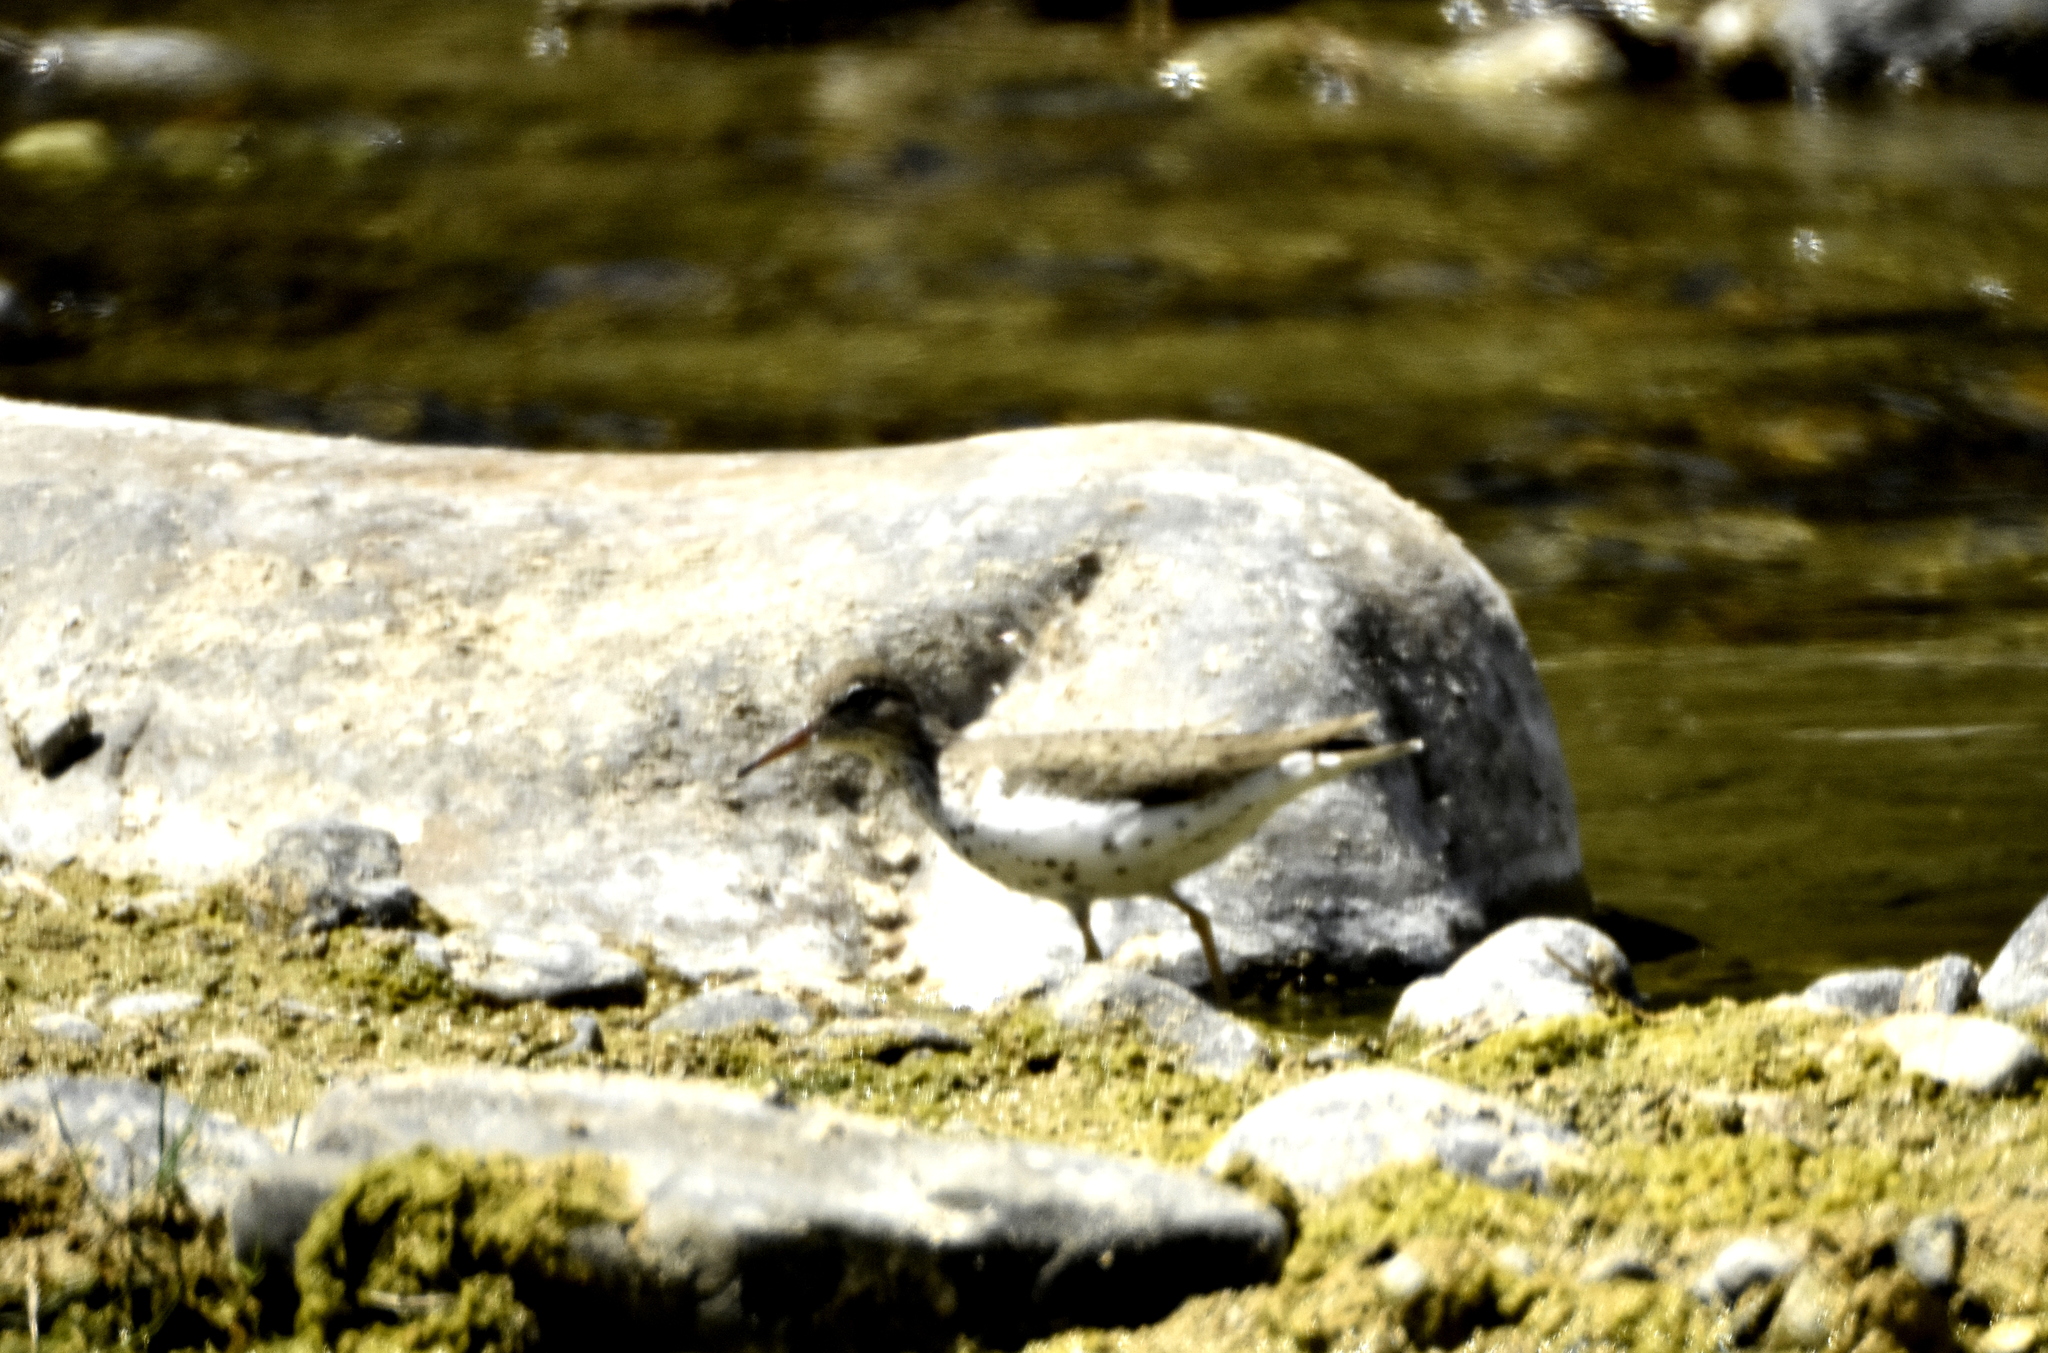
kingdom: Animalia
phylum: Chordata
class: Aves
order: Charadriiformes
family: Scolopacidae
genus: Actitis
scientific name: Actitis macularius
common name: Spotted sandpiper
